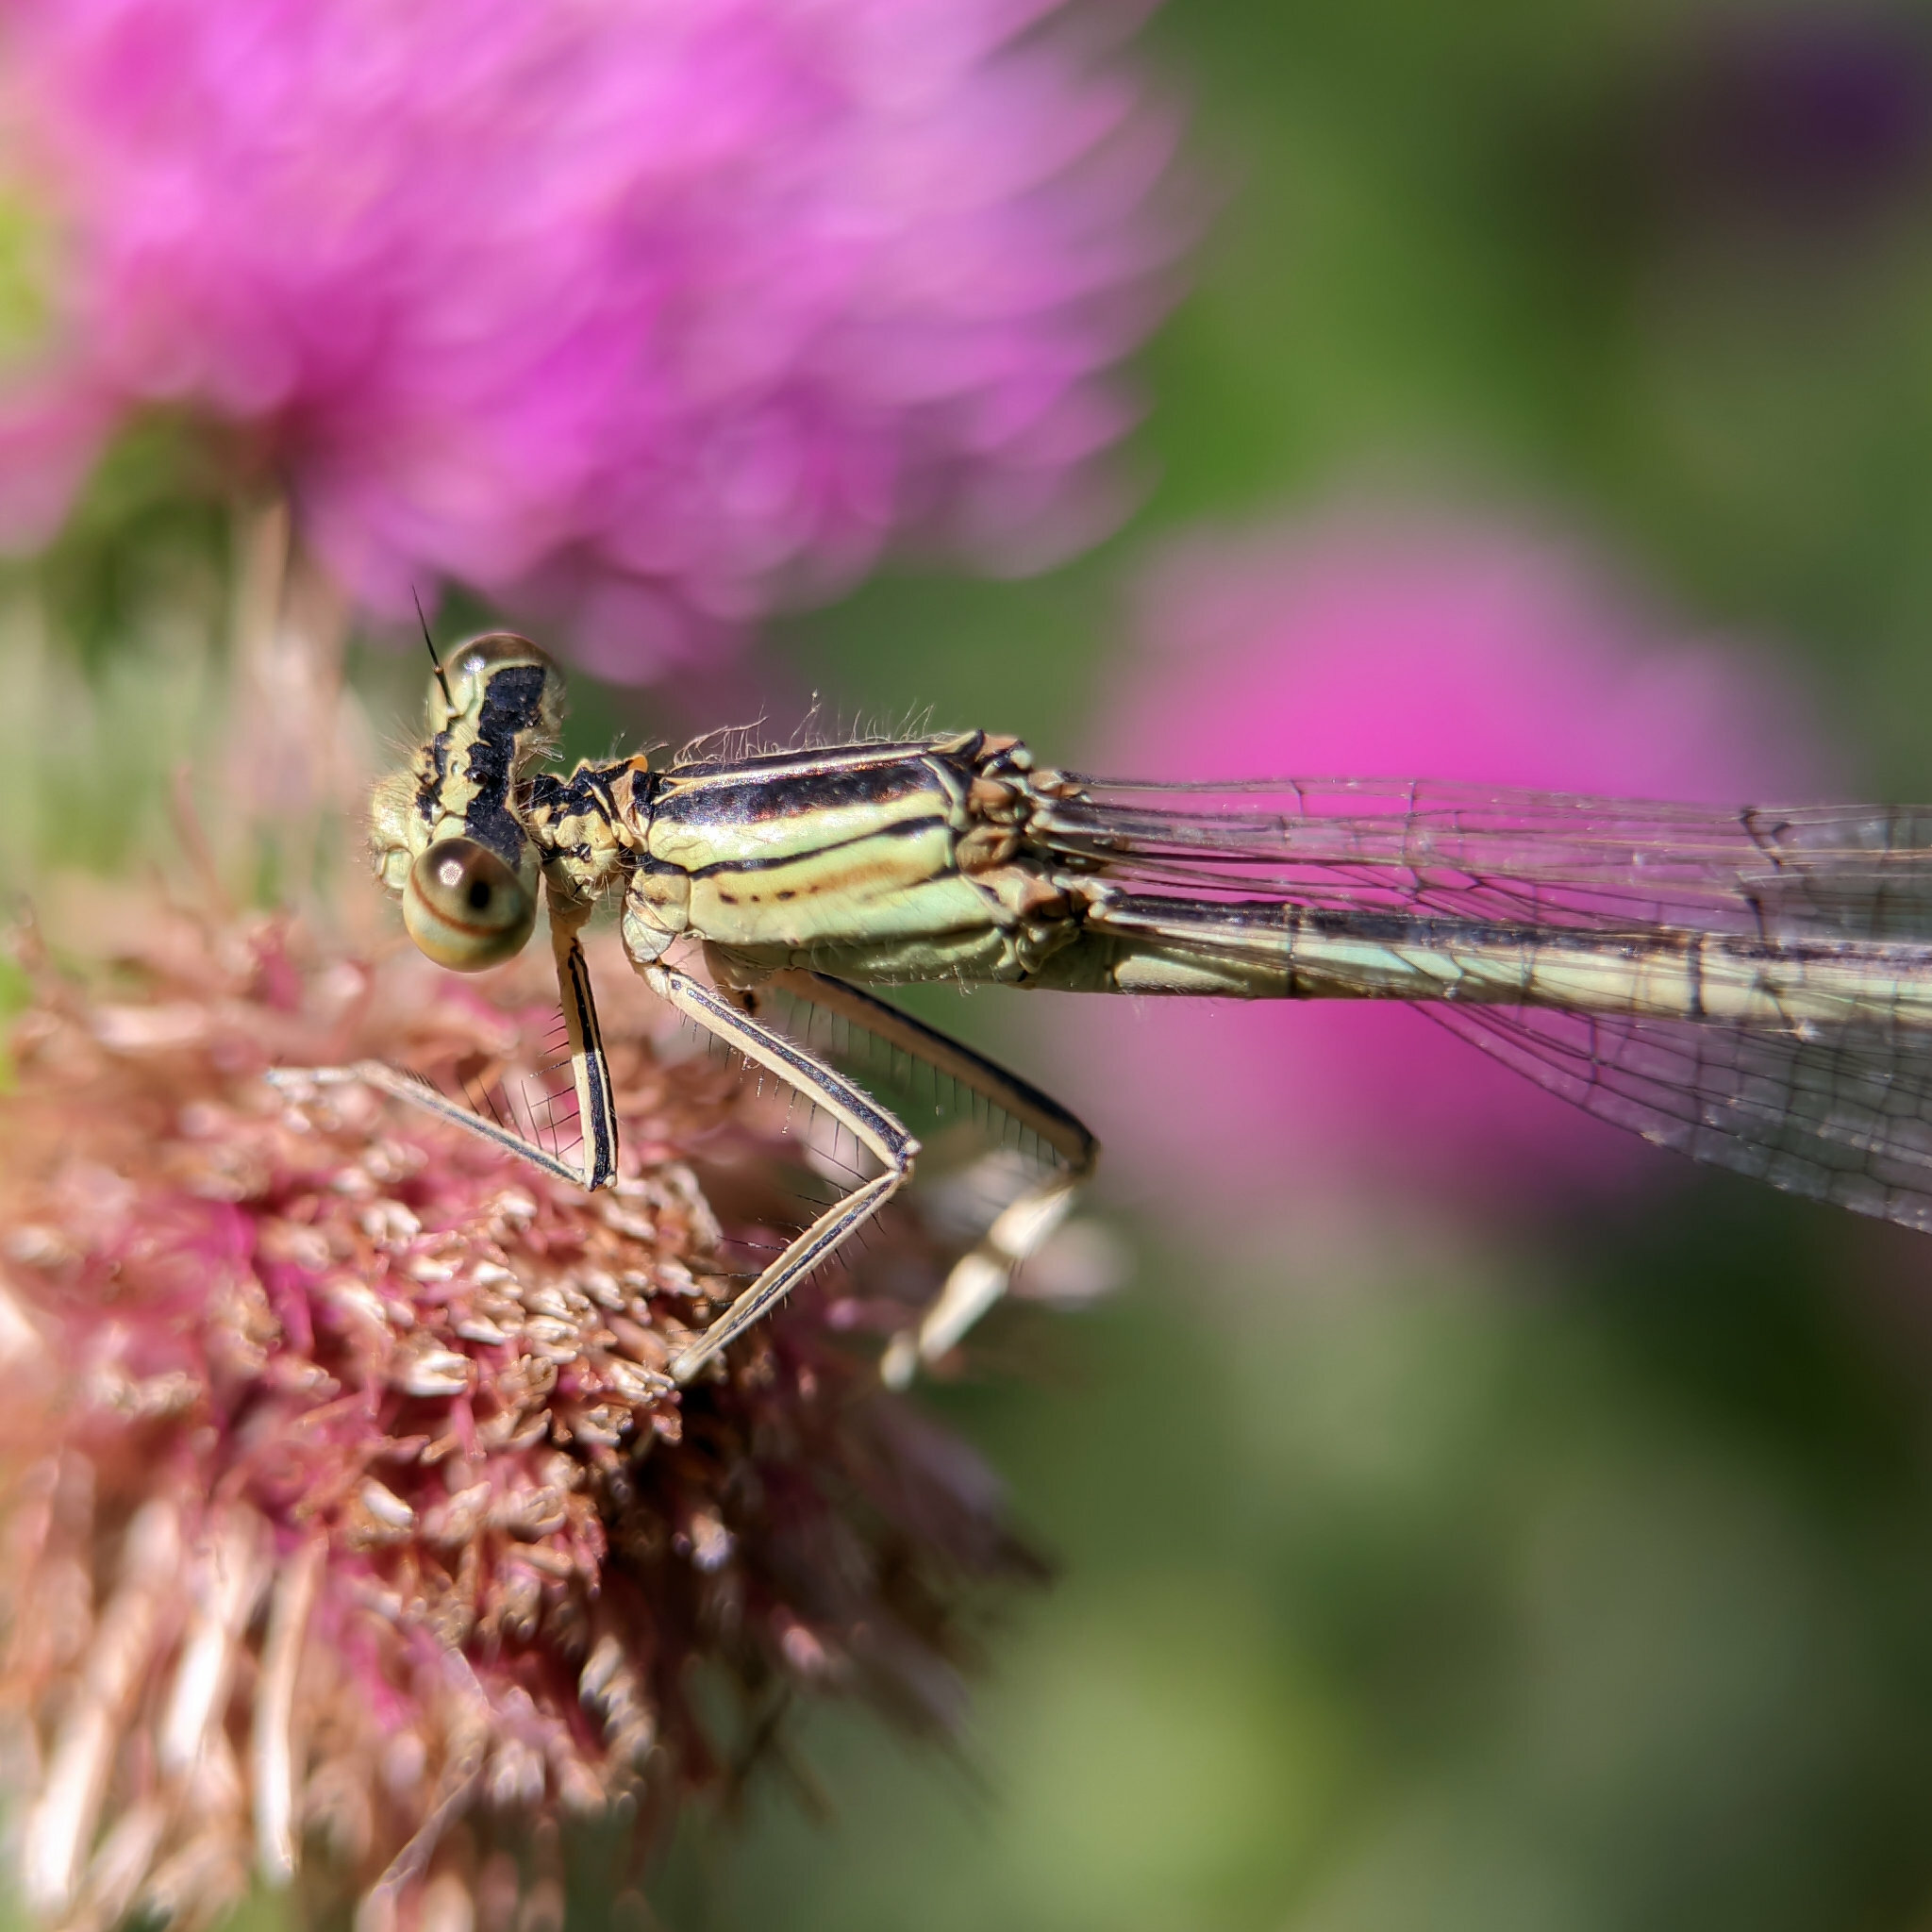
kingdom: Animalia
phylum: Arthropoda
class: Insecta
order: Odonata
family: Platycnemididae
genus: Platycnemis
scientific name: Platycnemis pennipes
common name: White-legged damselfly
